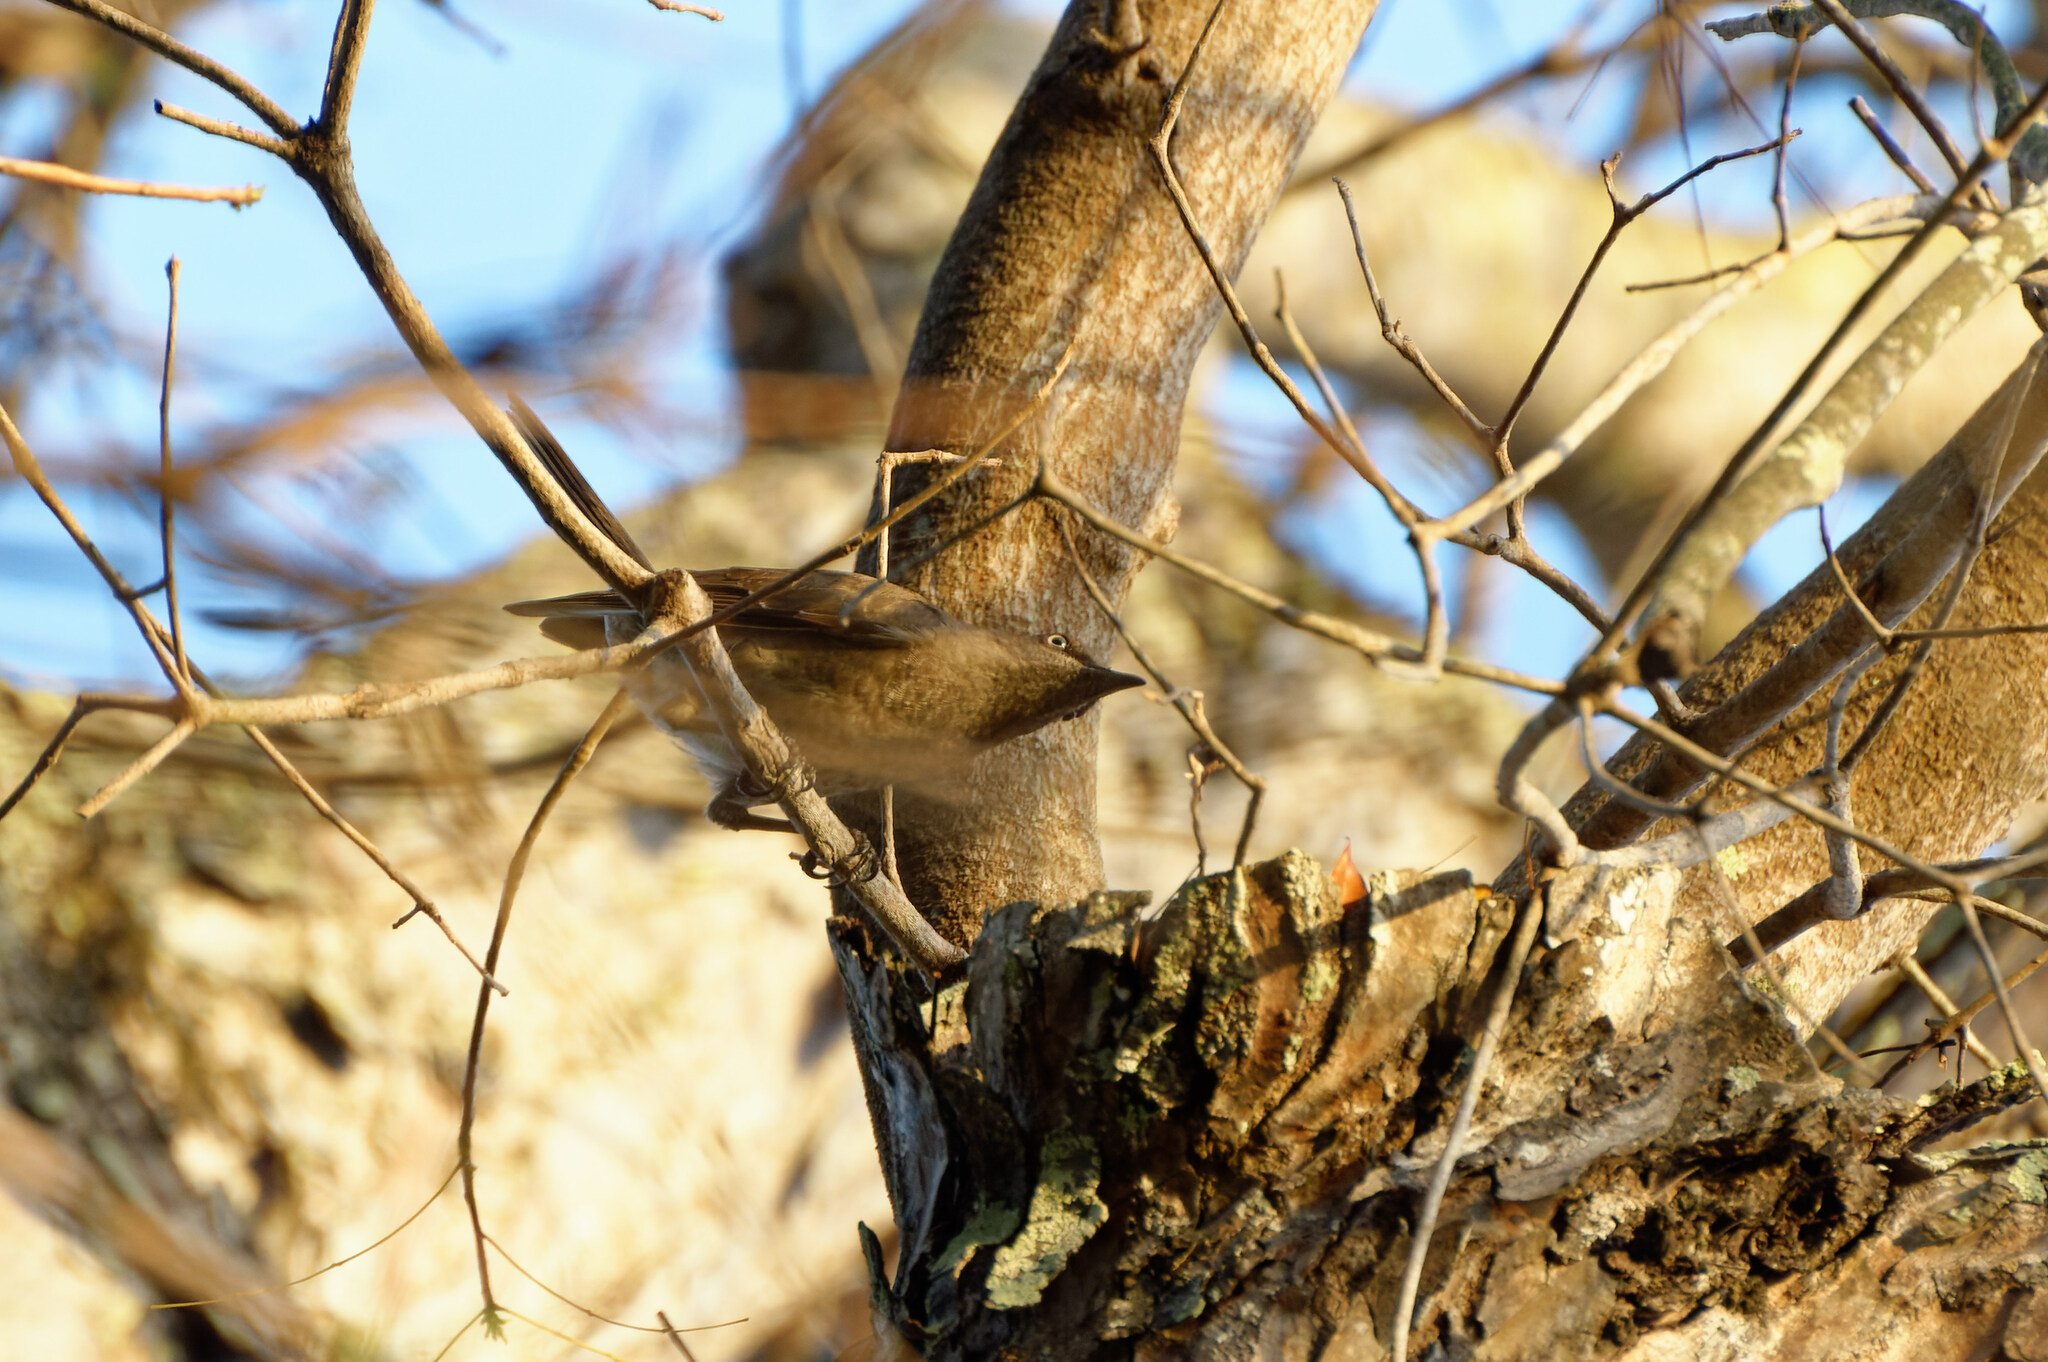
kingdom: Animalia
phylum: Chordata
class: Aves
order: Passeriformes
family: Mimidae
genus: Allenia
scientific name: Allenia fusca
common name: Scaly-breasted thrasher
